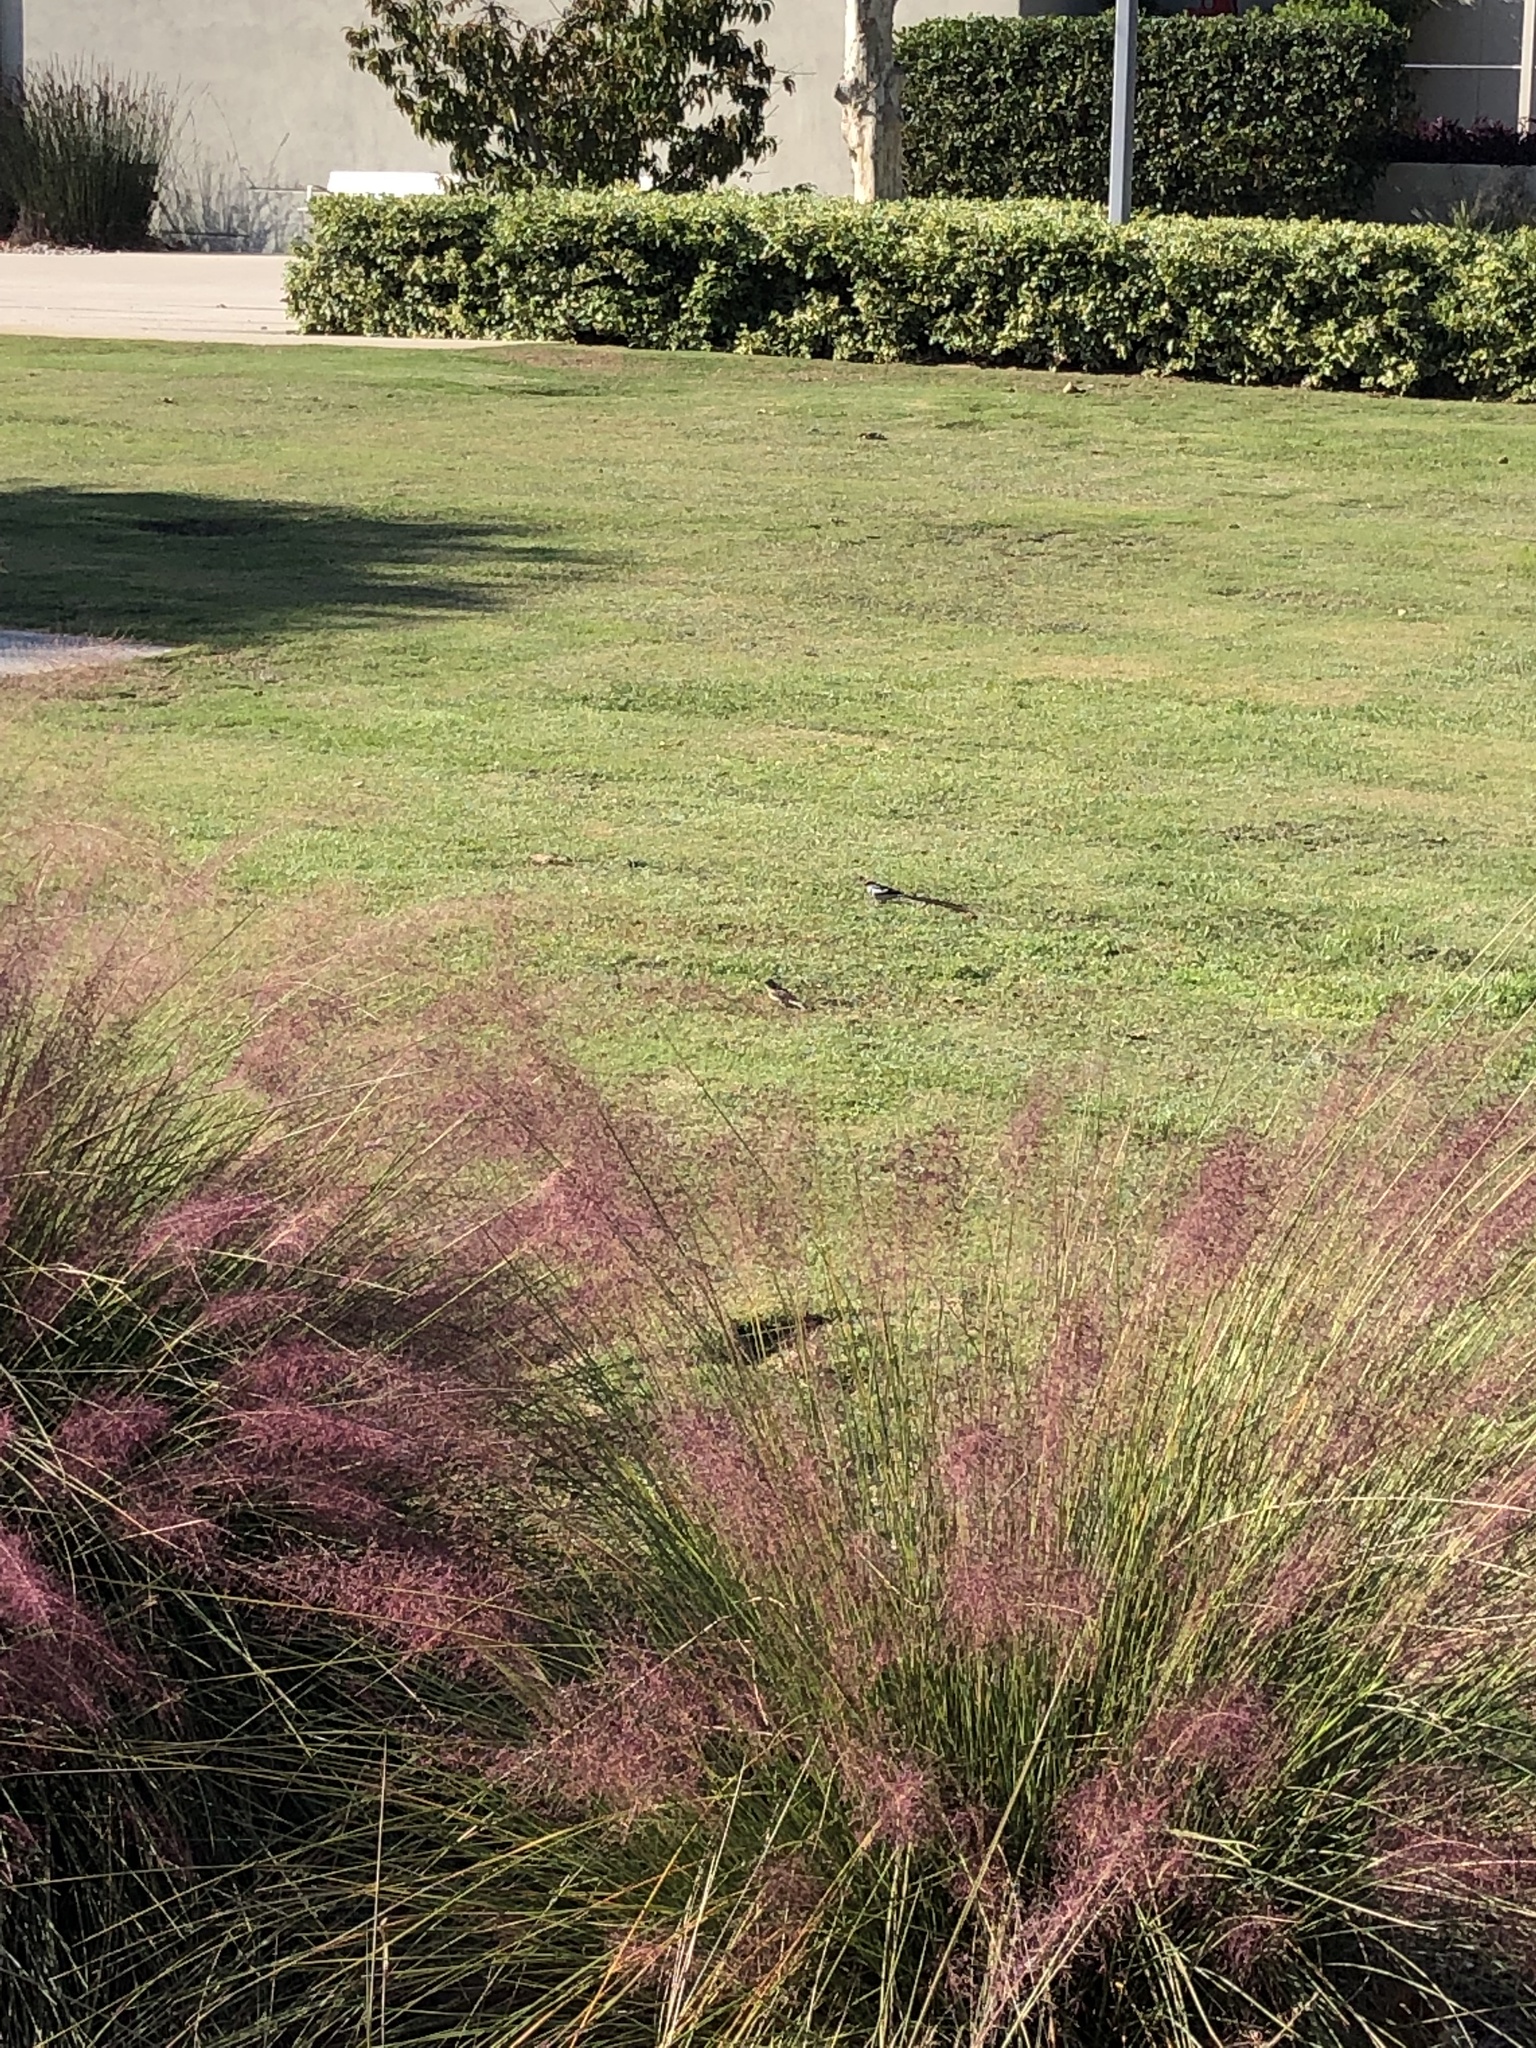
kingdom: Animalia
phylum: Chordata
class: Aves
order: Passeriformes
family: Viduidae
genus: Vidua
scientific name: Vidua macroura
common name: Pin-tailed whydah
